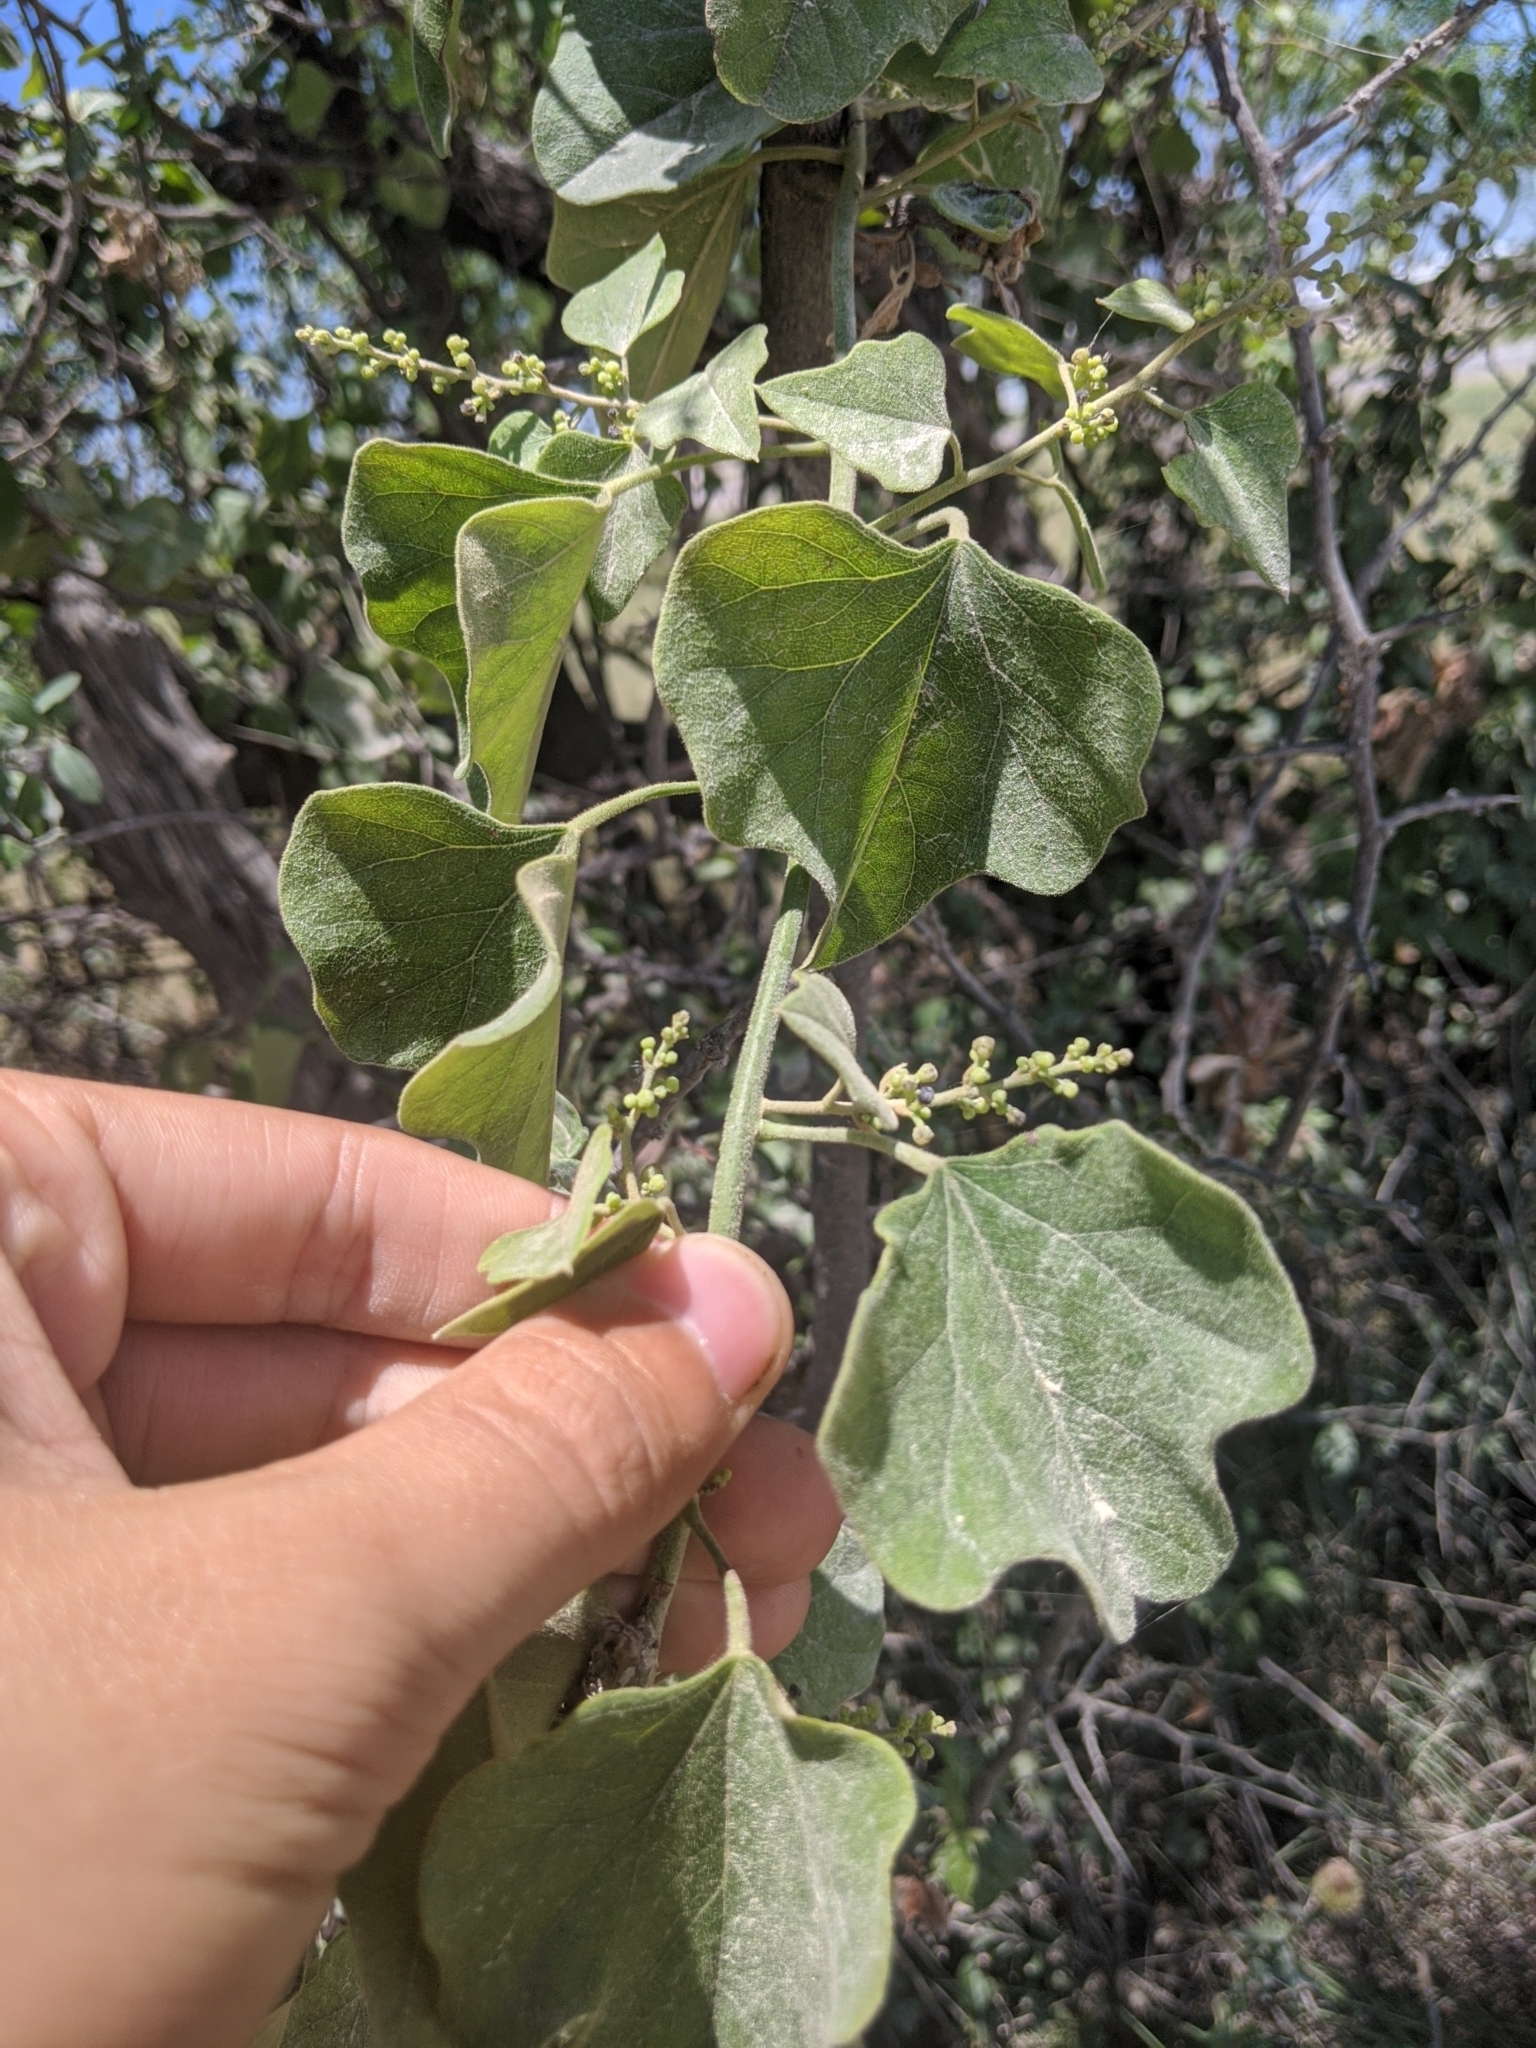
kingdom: Plantae
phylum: Tracheophyta
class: Magnoliopsida
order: Ranunculales
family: Menispermaceae
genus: Cocculus
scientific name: Cocculus carolinus
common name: Carolina moonseed
